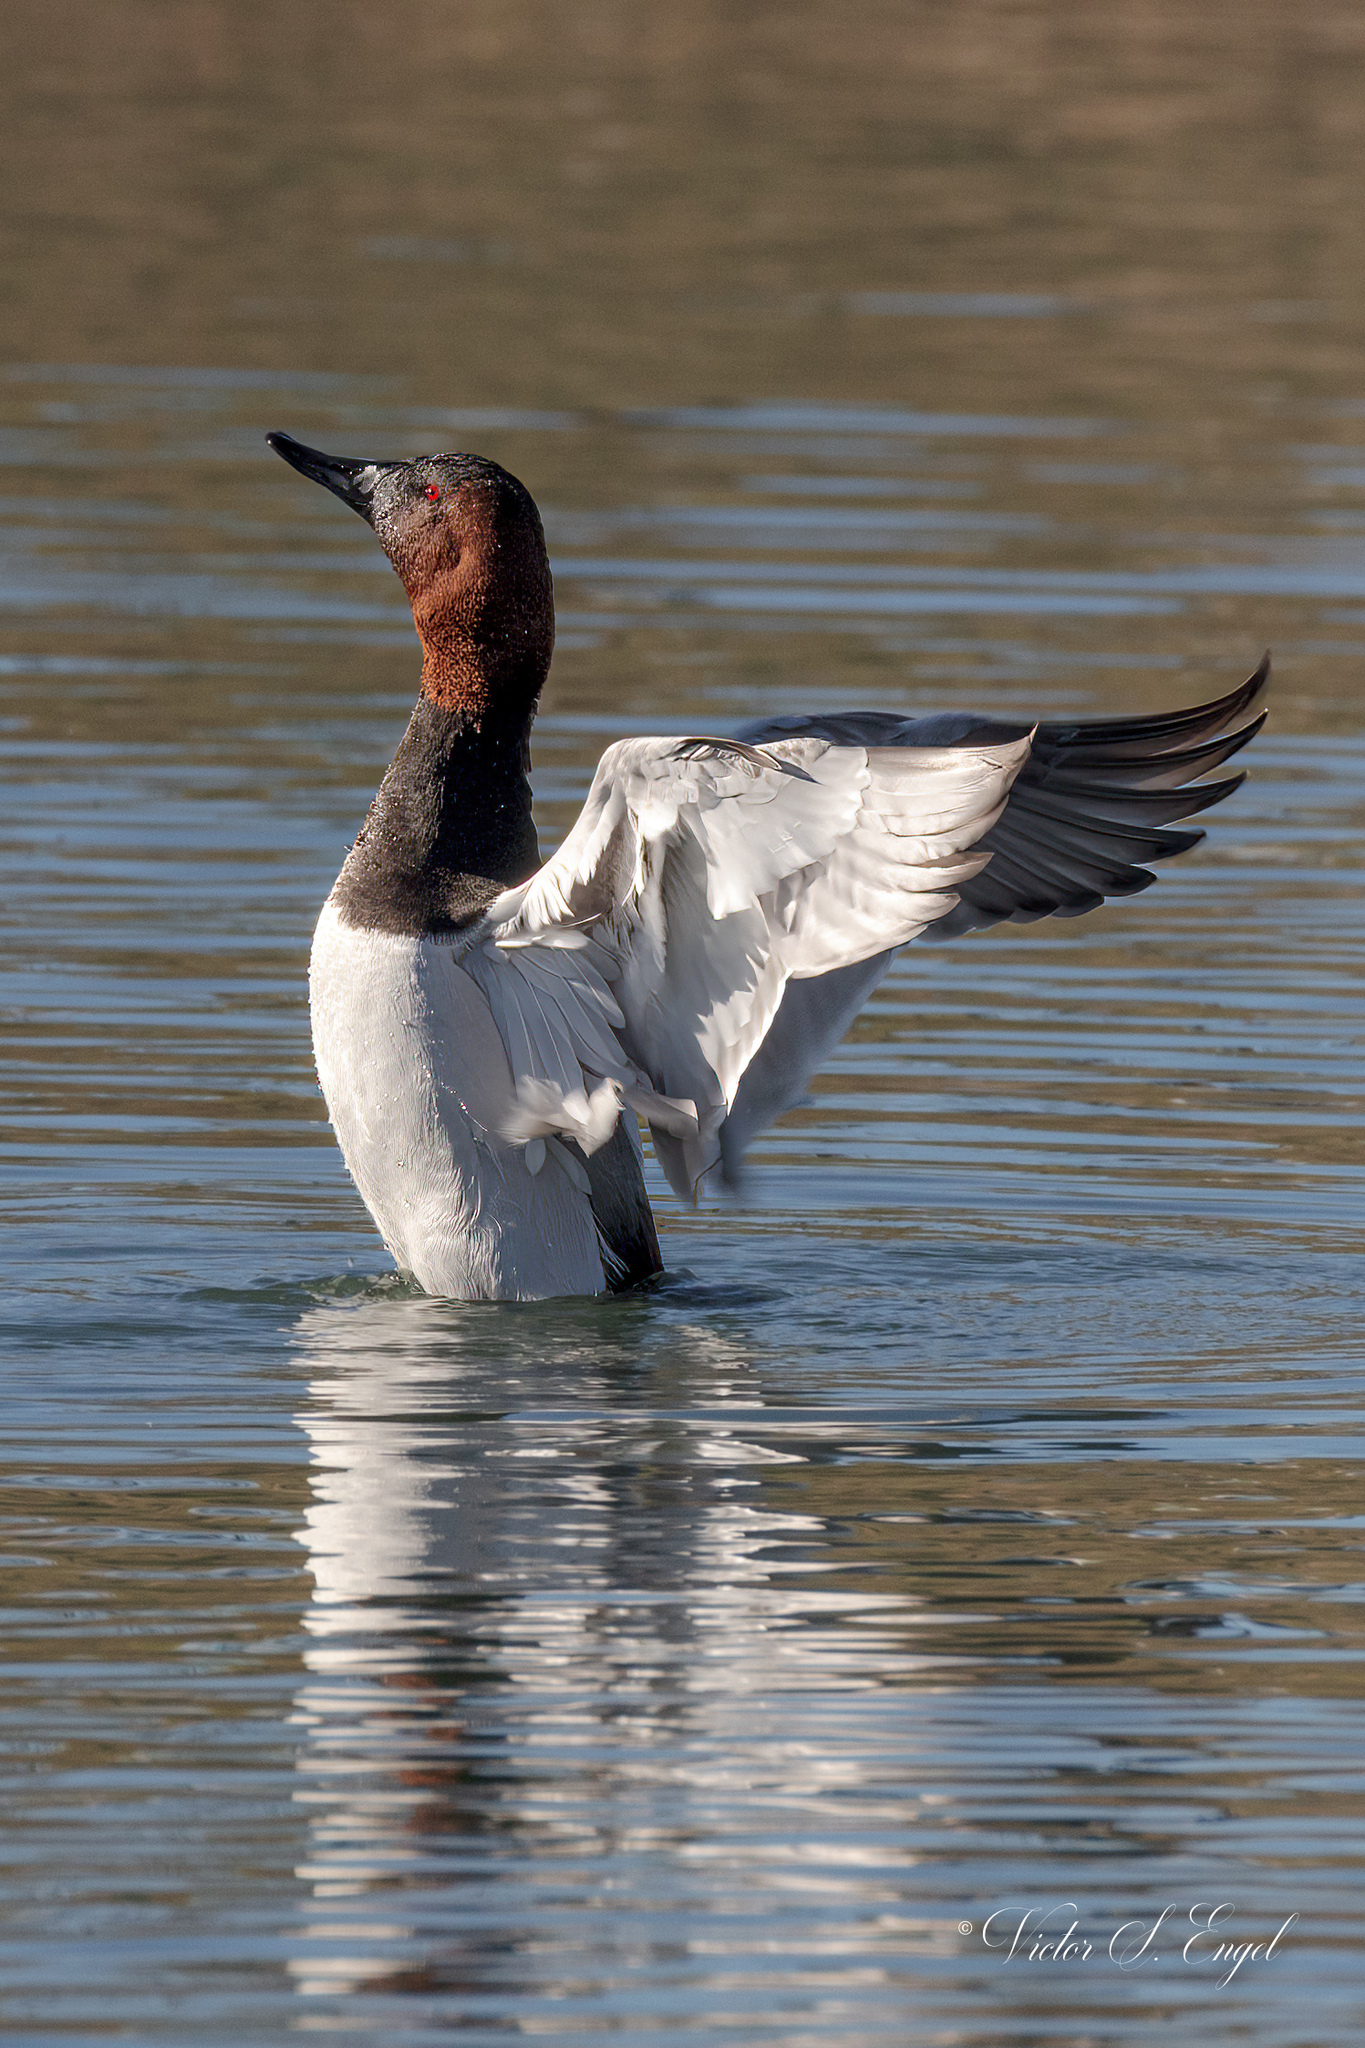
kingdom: Animalia
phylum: Chordata
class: Aves
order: Anseriformes
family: Anatidae
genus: Aythya
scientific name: Aythya valisineria
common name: Canvasback
